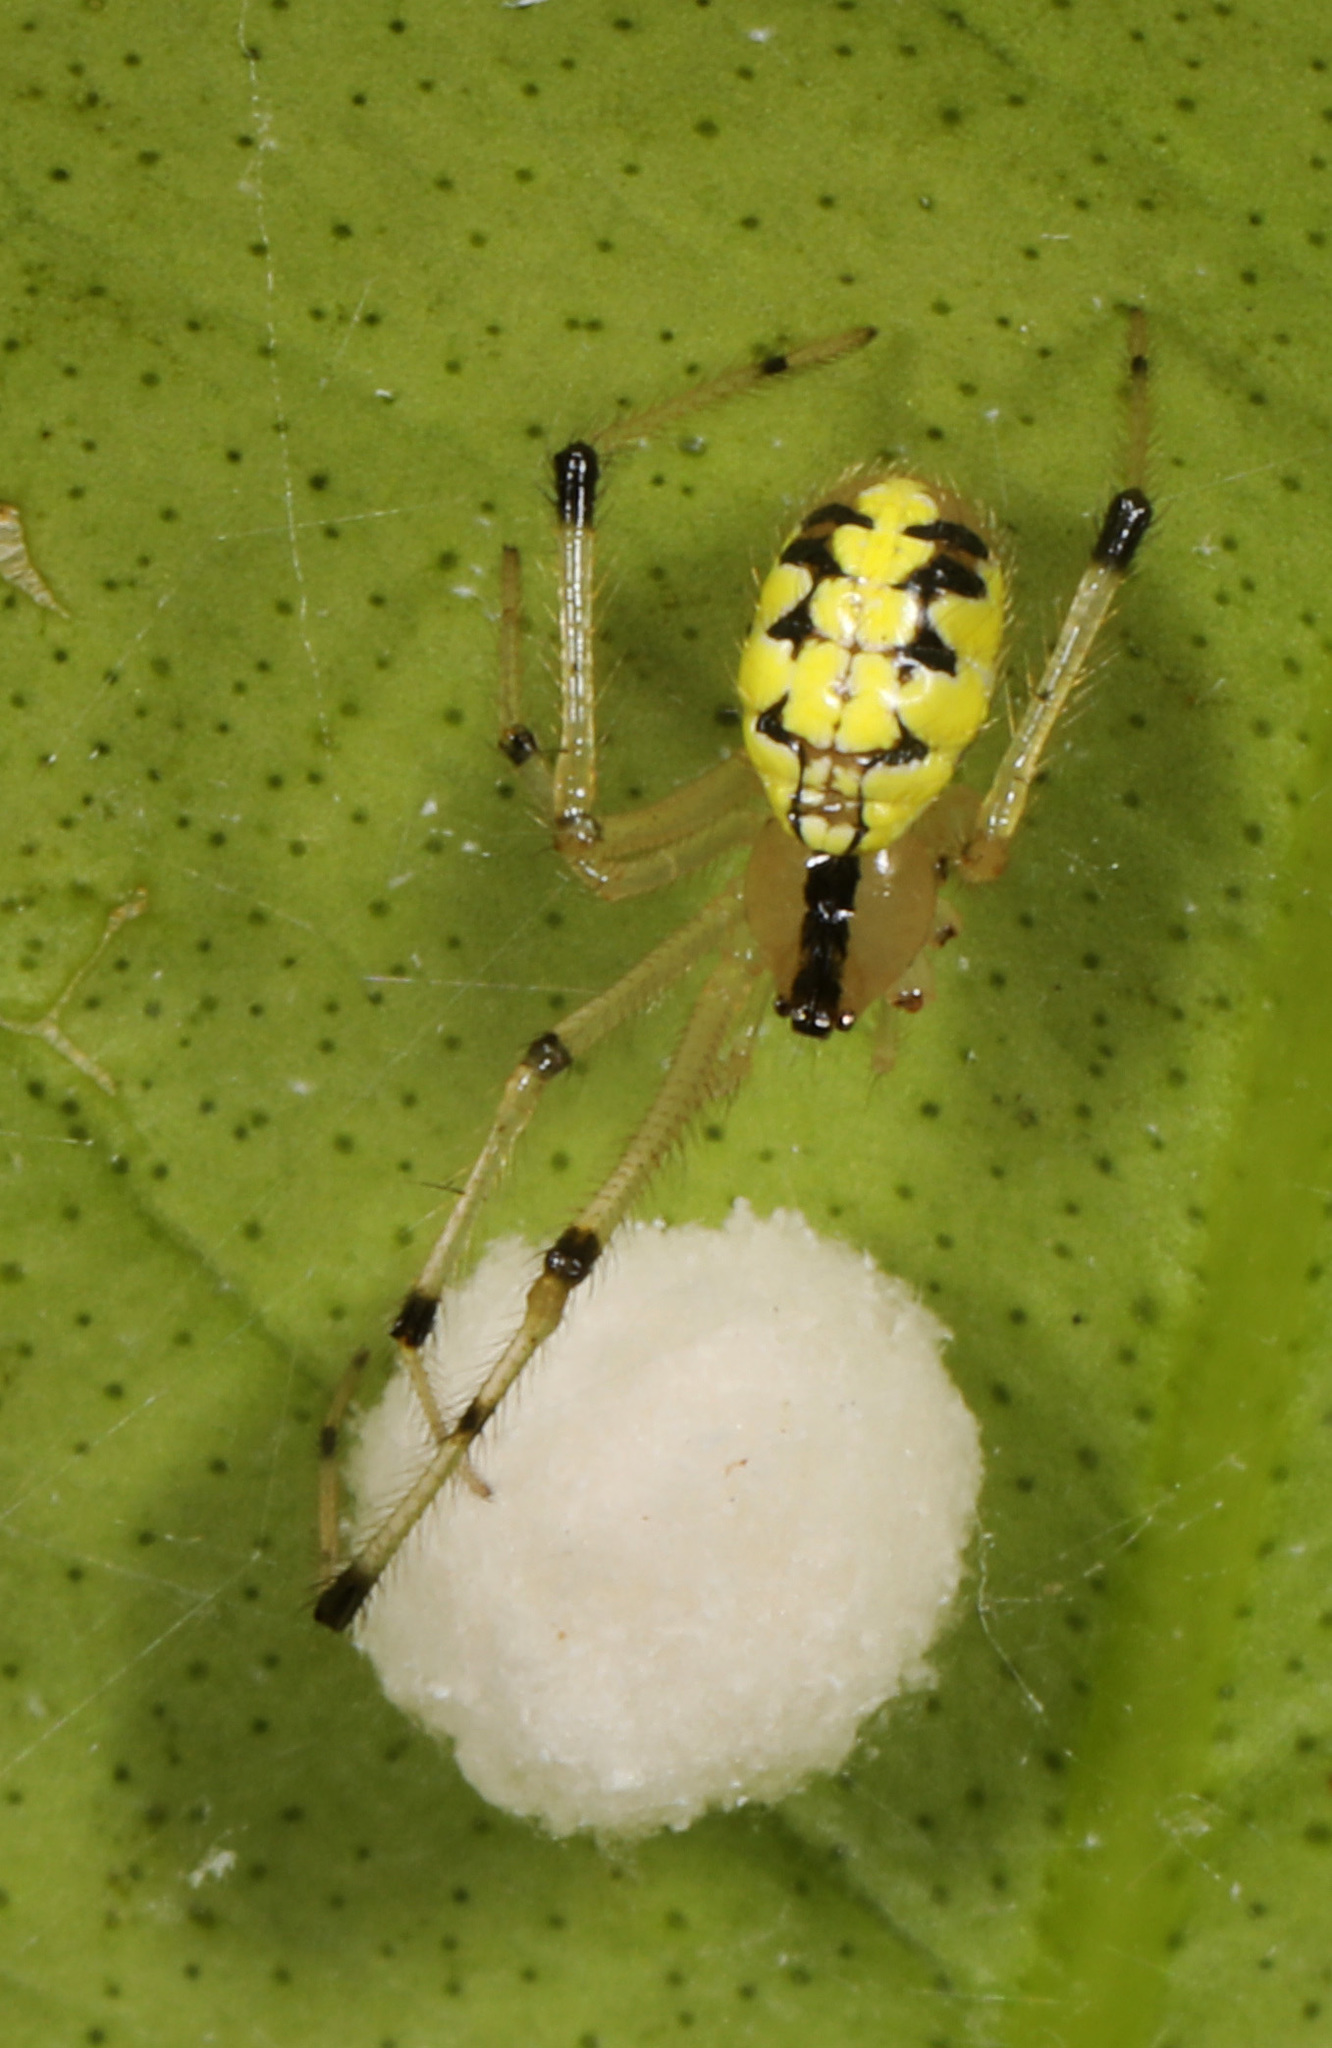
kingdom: Animalia
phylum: Arthropoda
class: Arachnida
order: Araneae
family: Theridiidae
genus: Phylloneta
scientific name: Phylloneta pictipes
